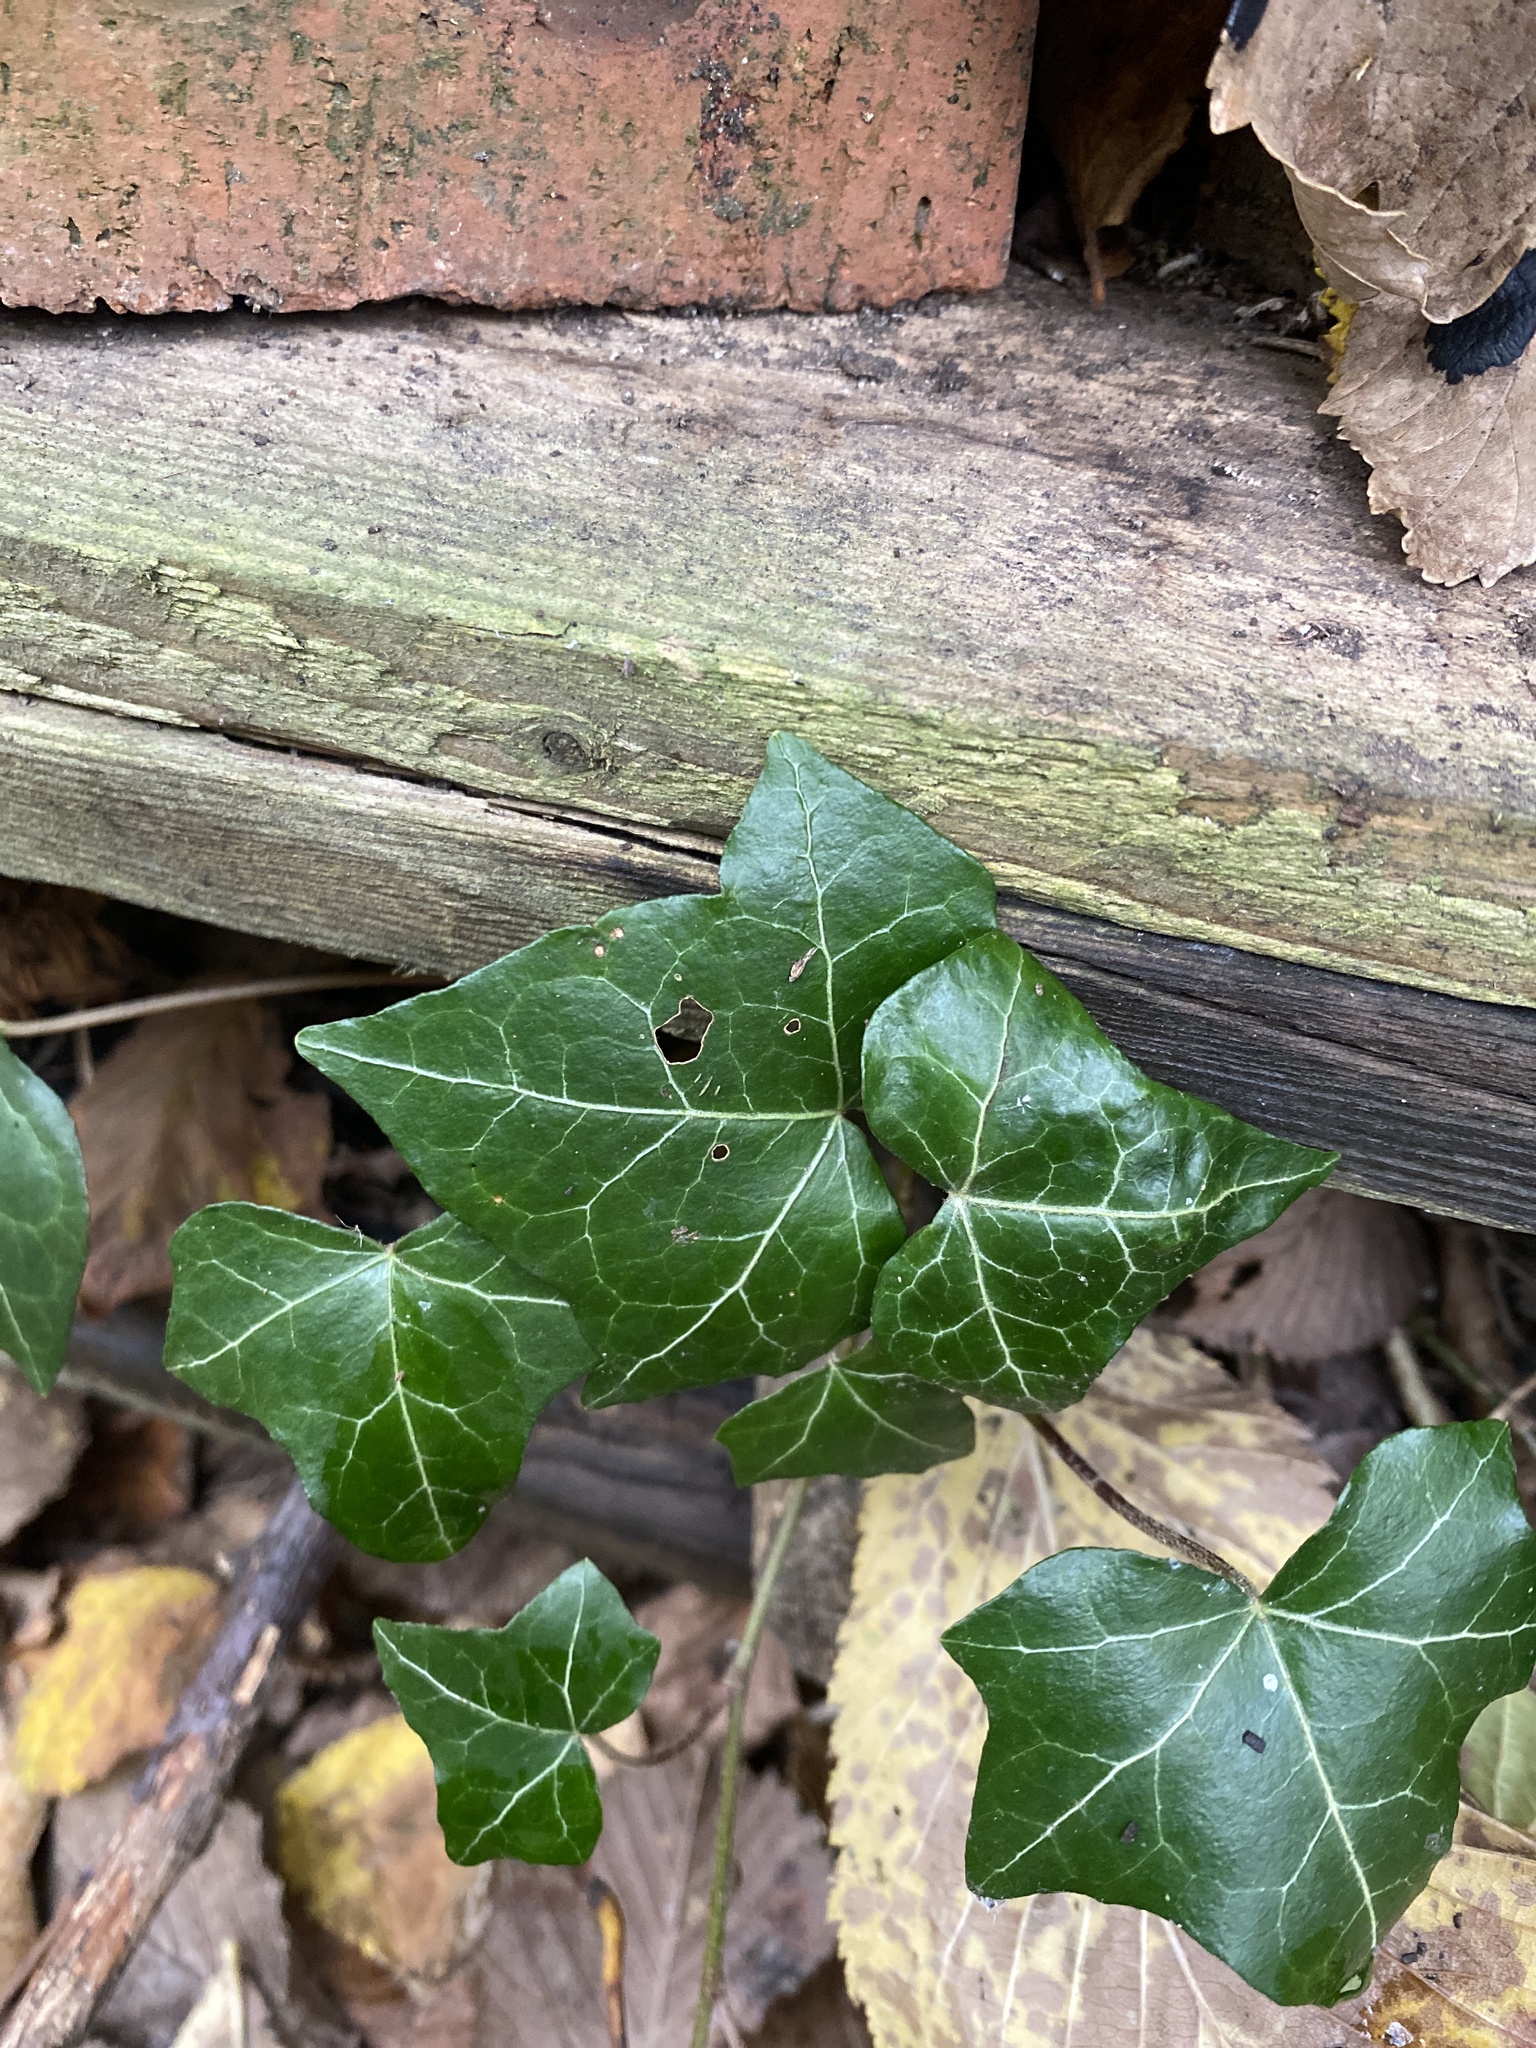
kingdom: Plantae
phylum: Tracheophyta
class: Magnoliopsida
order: Apiales
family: Araliaceae
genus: Hedera
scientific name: Hedera helix
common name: Ivy
